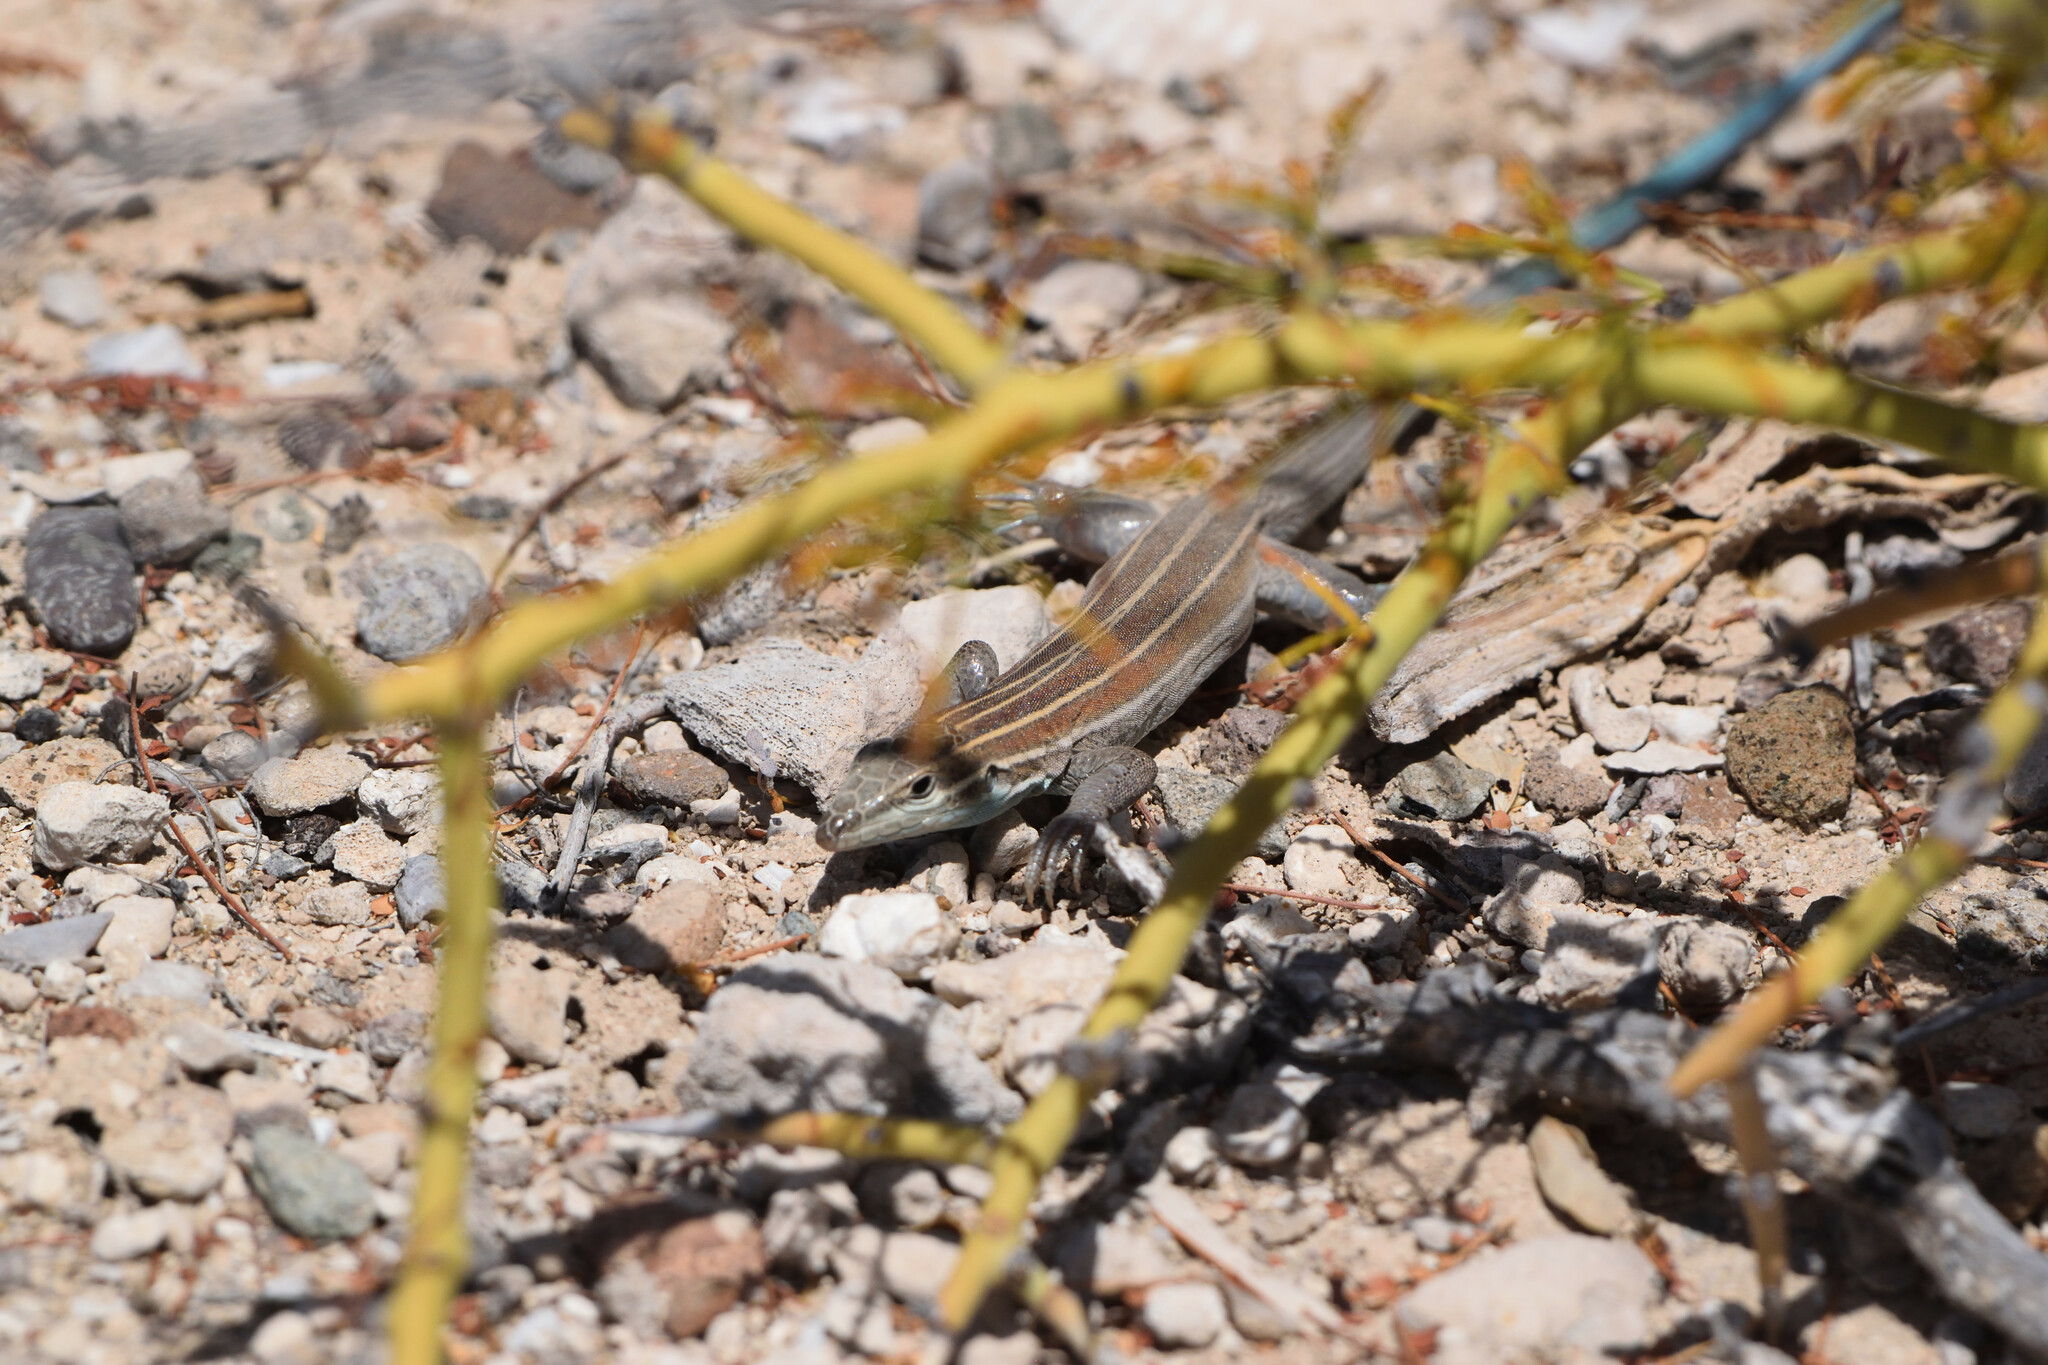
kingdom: Animalia
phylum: Chordata
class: Squamata
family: Teiidae
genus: Aspidoscelis
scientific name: Aspidoscelis carmenensis
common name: Carmen island whiptail
